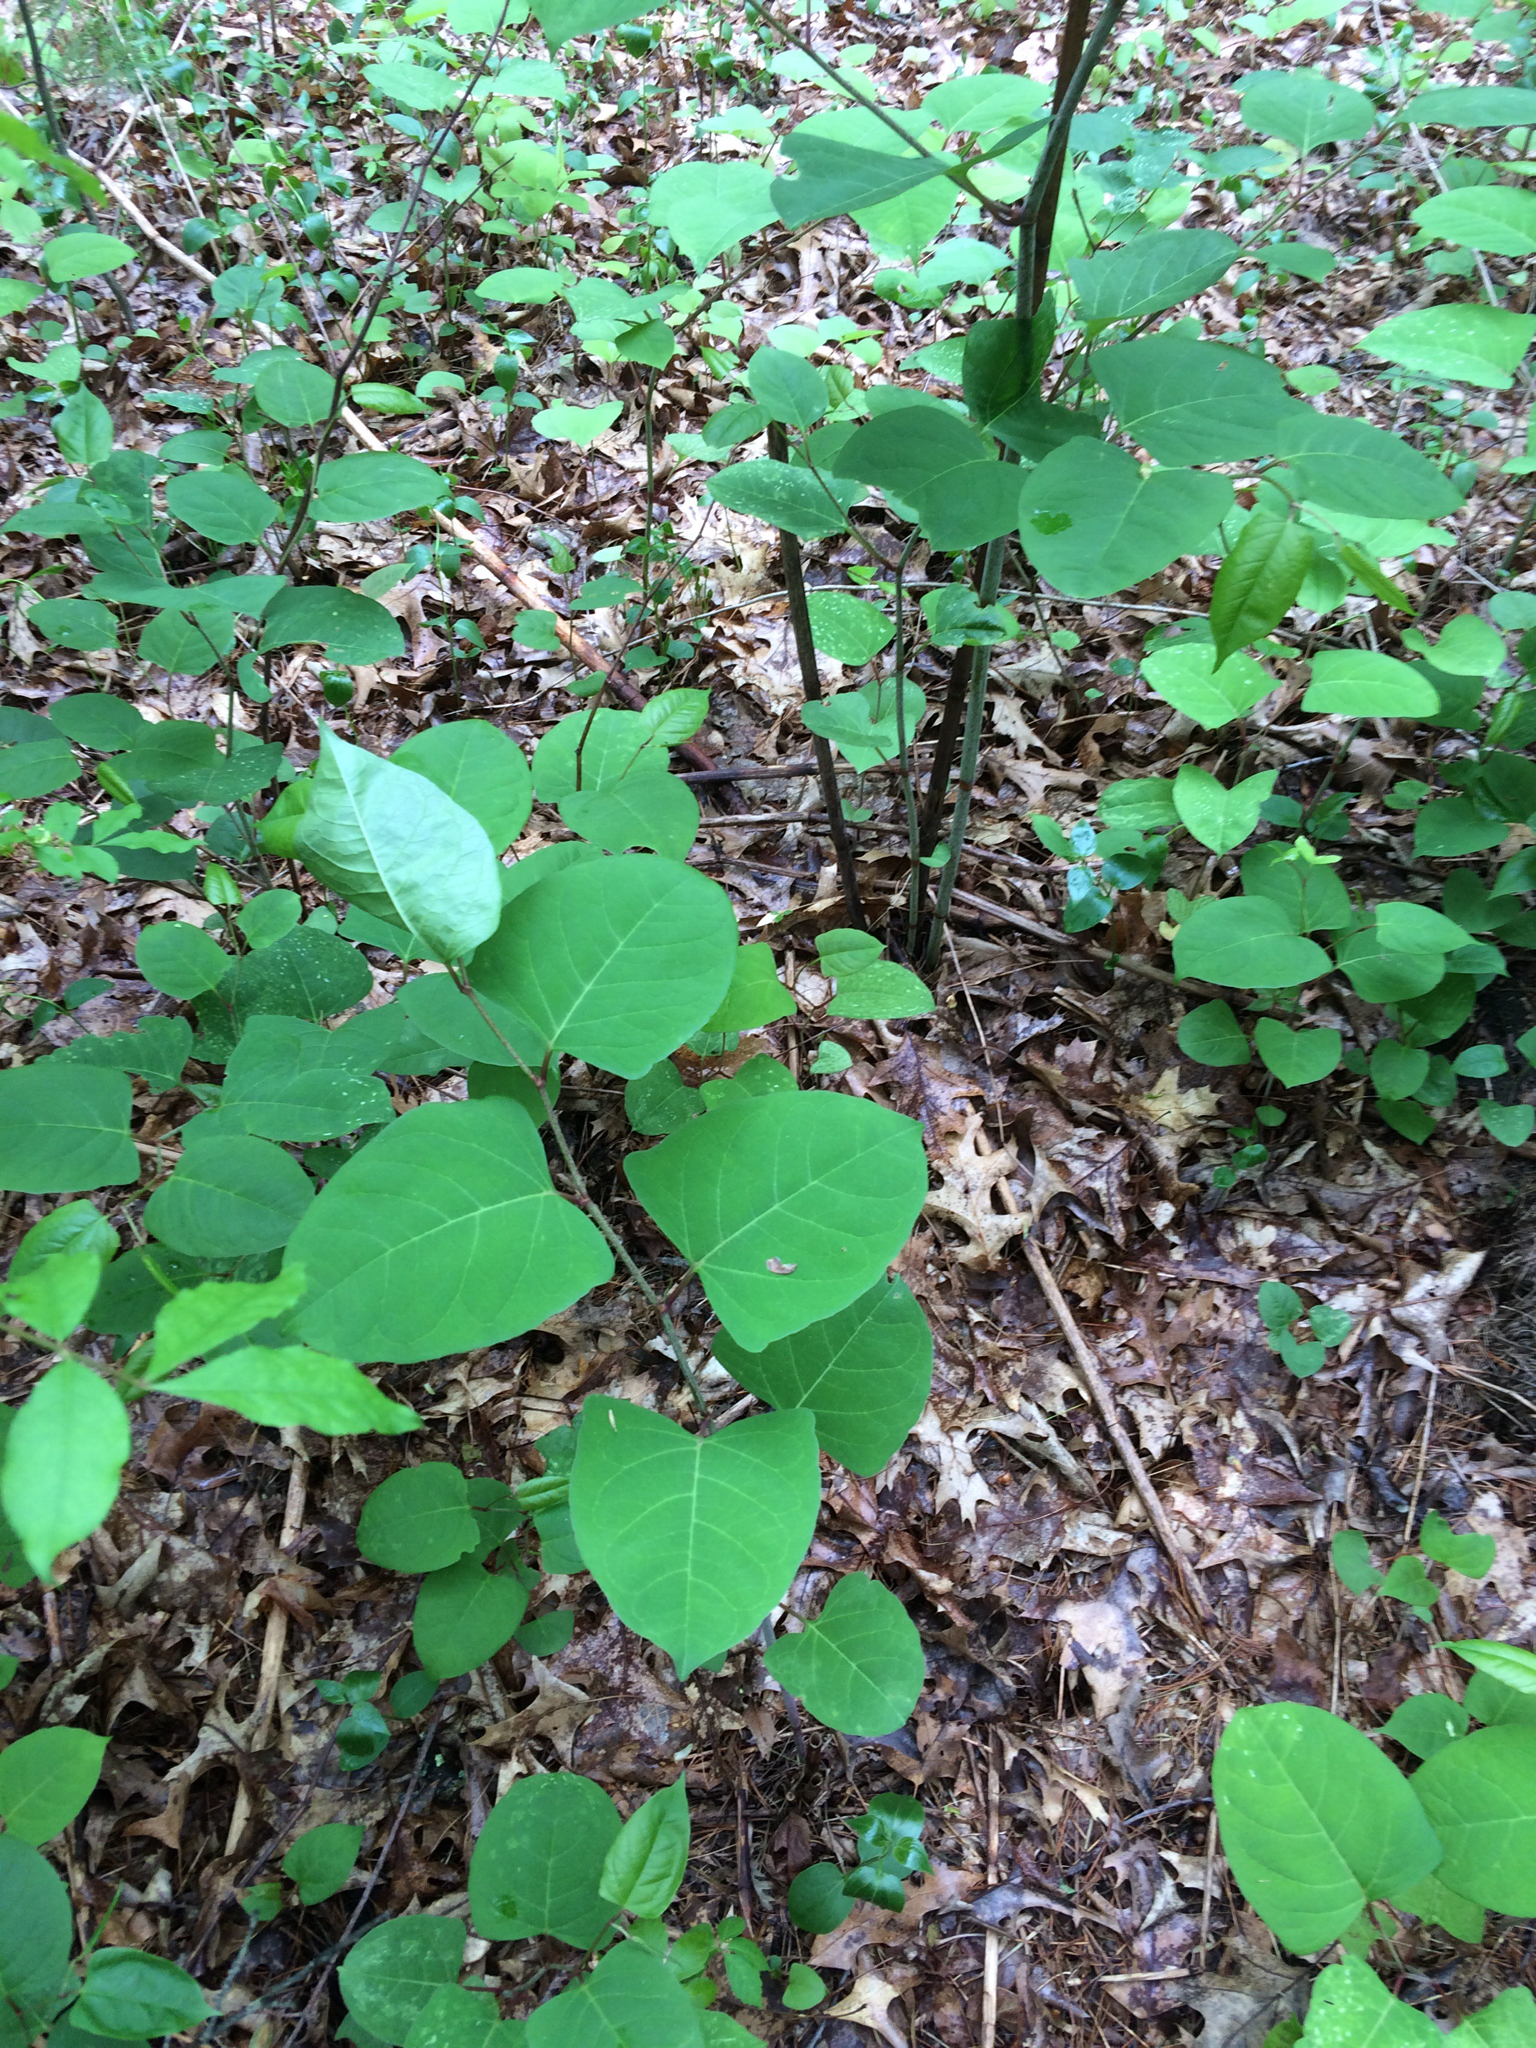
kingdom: Plantae
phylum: Tracheophyta
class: Magnoliopsida
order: Caryophyllales
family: Polygonaceae
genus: Reynoutria
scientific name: Reynoutria japonica
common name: Japanese knotweed
